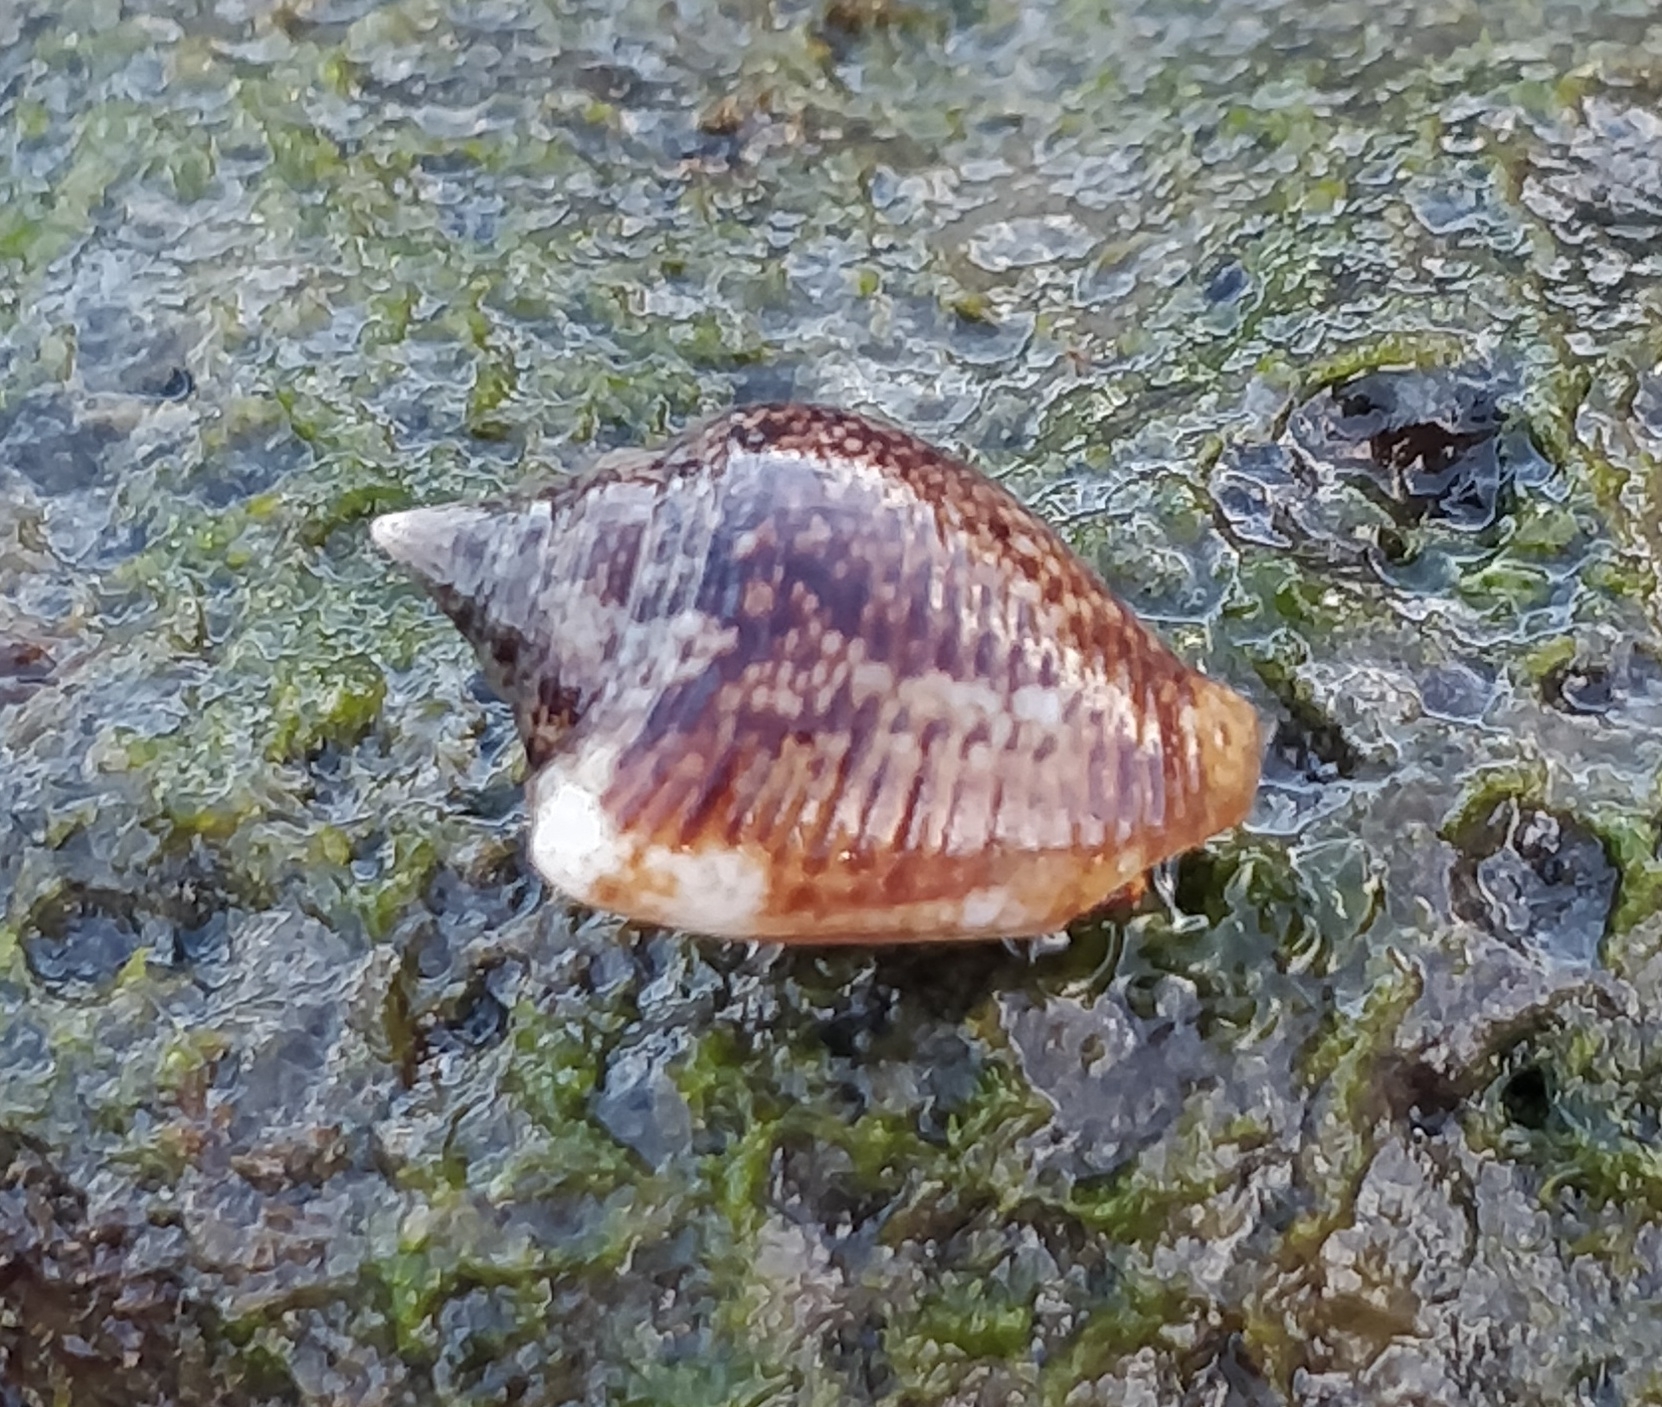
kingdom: Animalia
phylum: Mollusca
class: Gastropoda
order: Neogastropoda
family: Columbellidae
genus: Columbella
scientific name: Columbella adansoni
